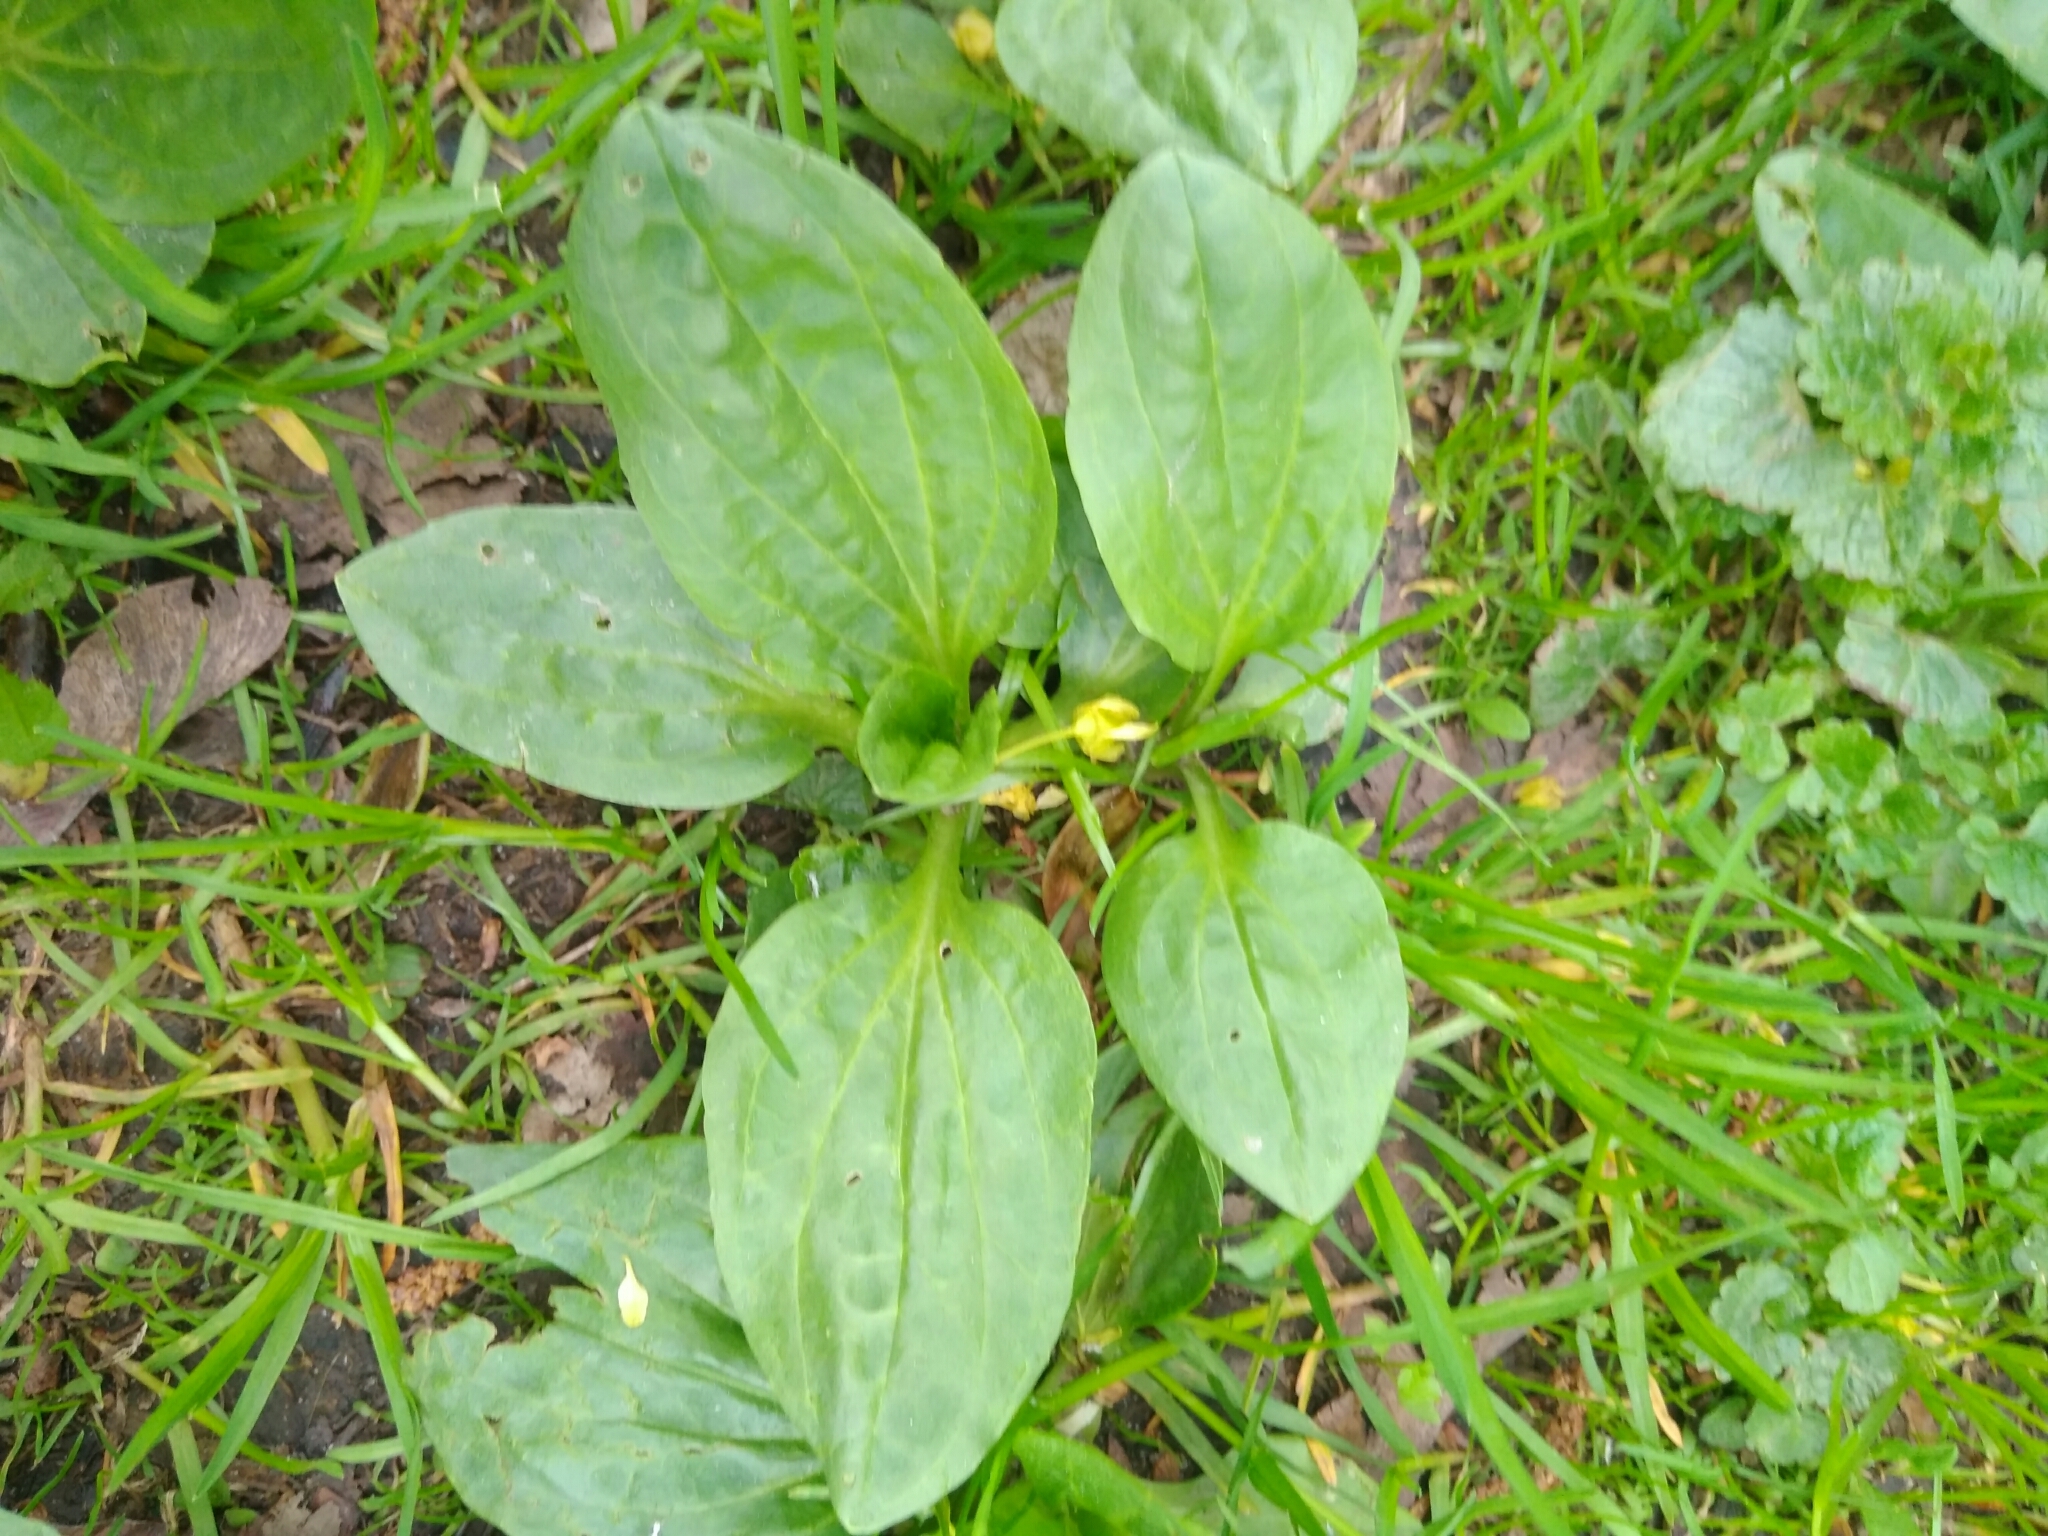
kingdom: Plantae
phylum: Tracheophyta
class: Magnoliopsida
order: Lamiales
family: Plantaginaceae
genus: Plantago
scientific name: Plantago major
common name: Common plantain
